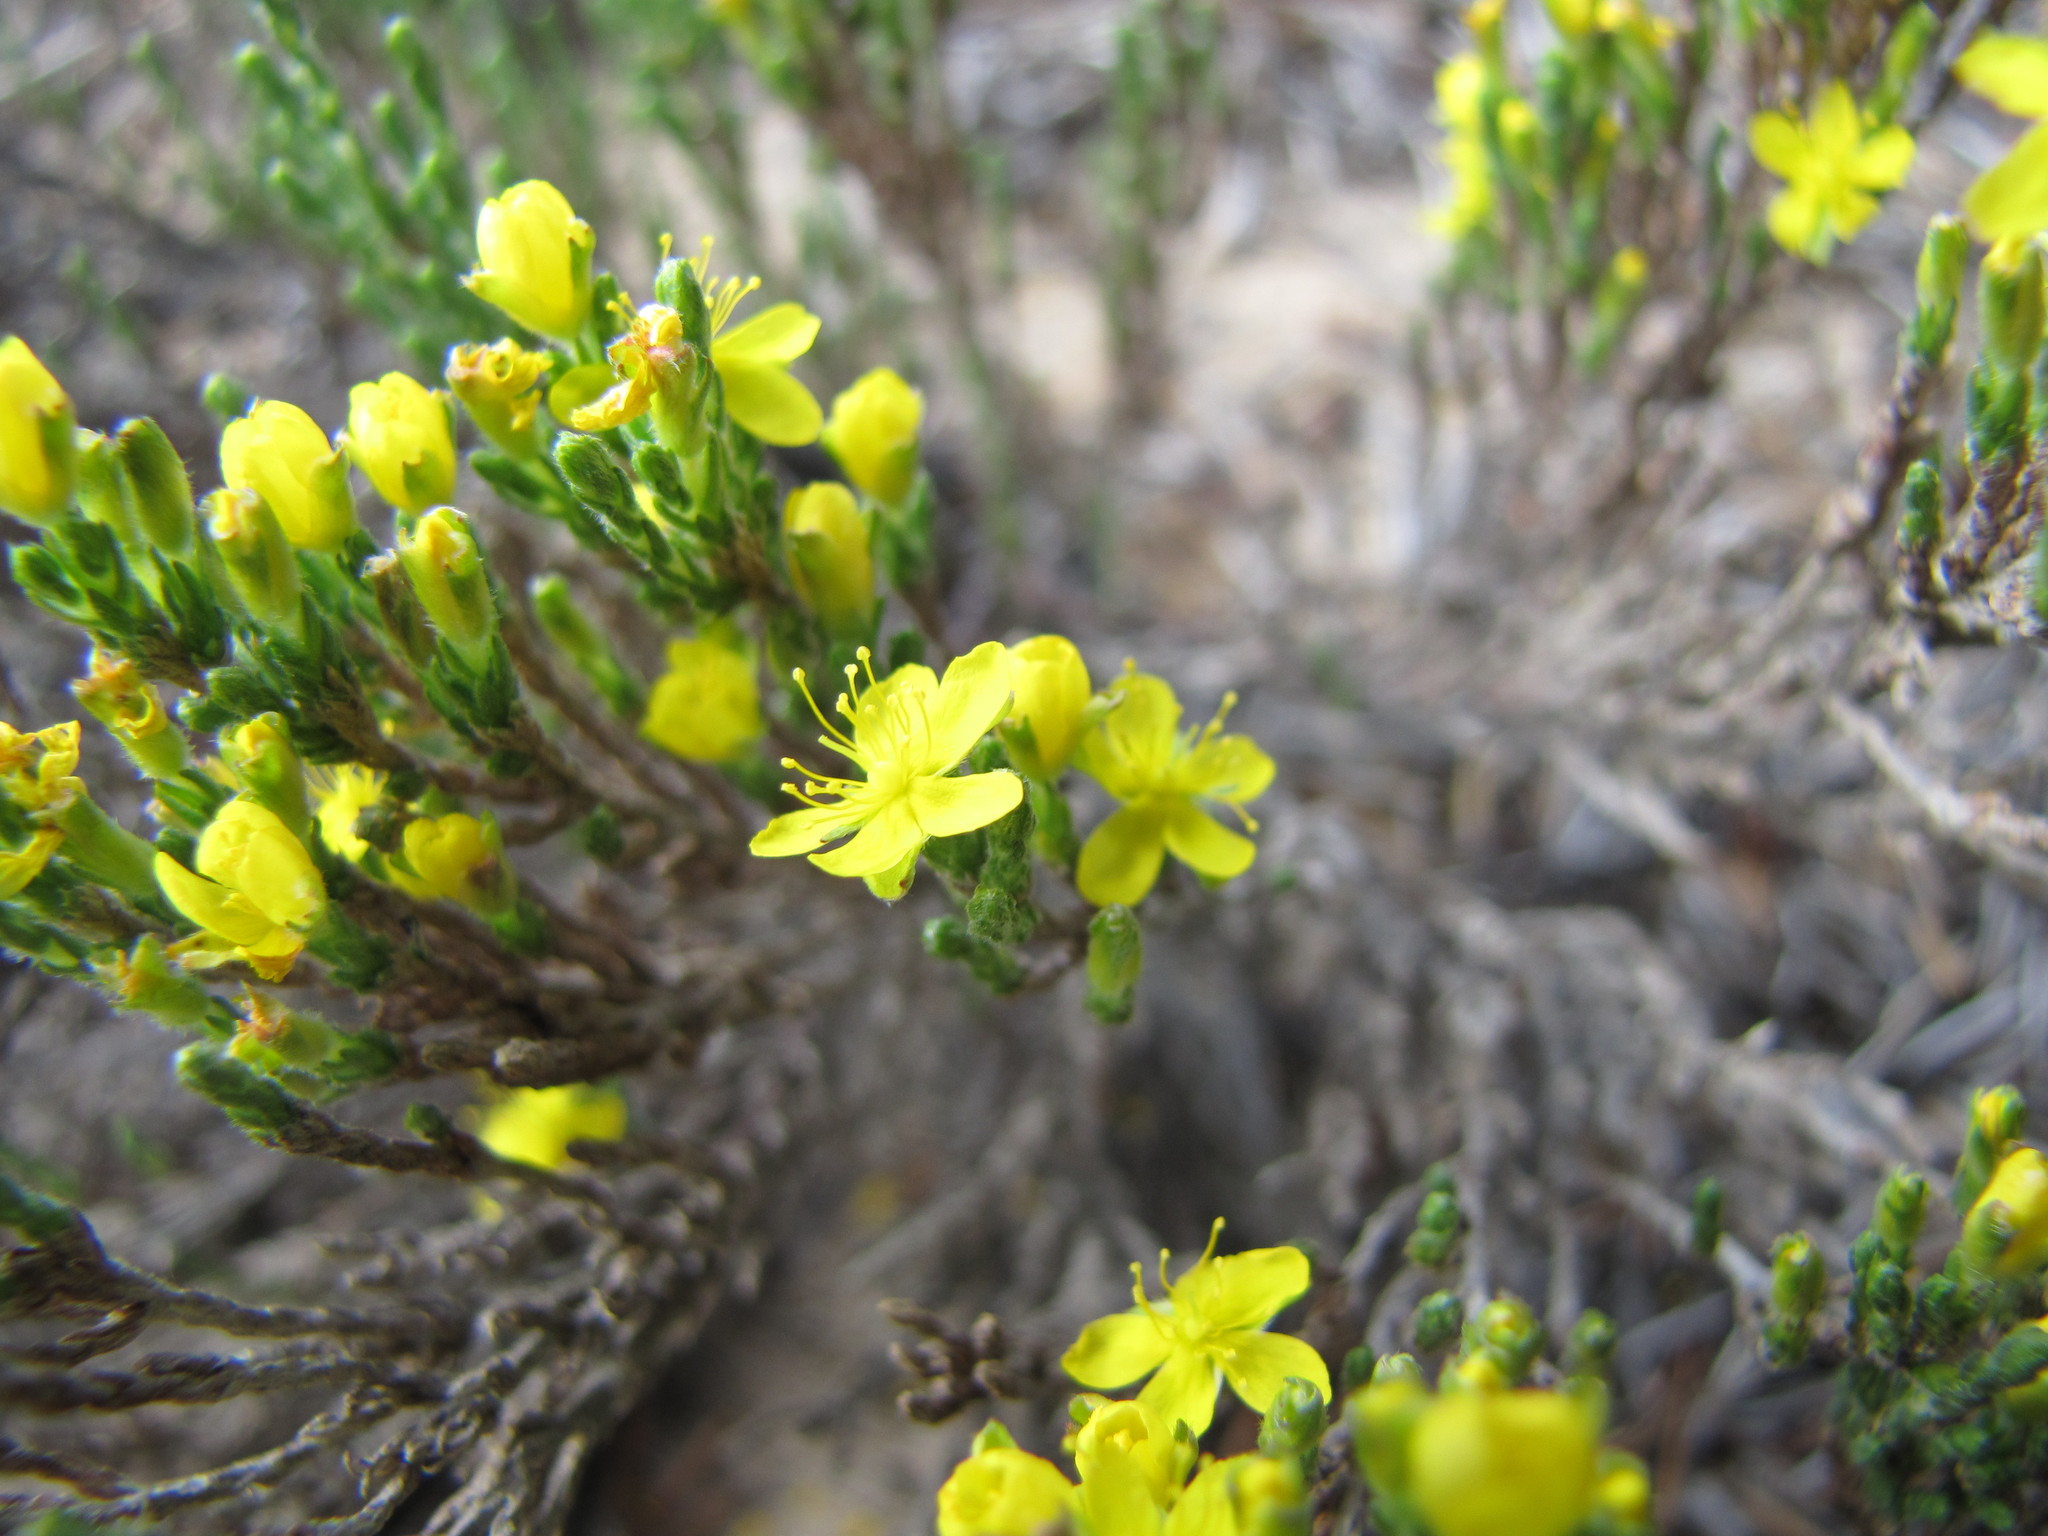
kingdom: Plantae
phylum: Tracheophyta
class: Magnoliopsida
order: Malvales
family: Cistaceae
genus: Hudsonia
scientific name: Hudsonia tomentosa
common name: Beach-heath
